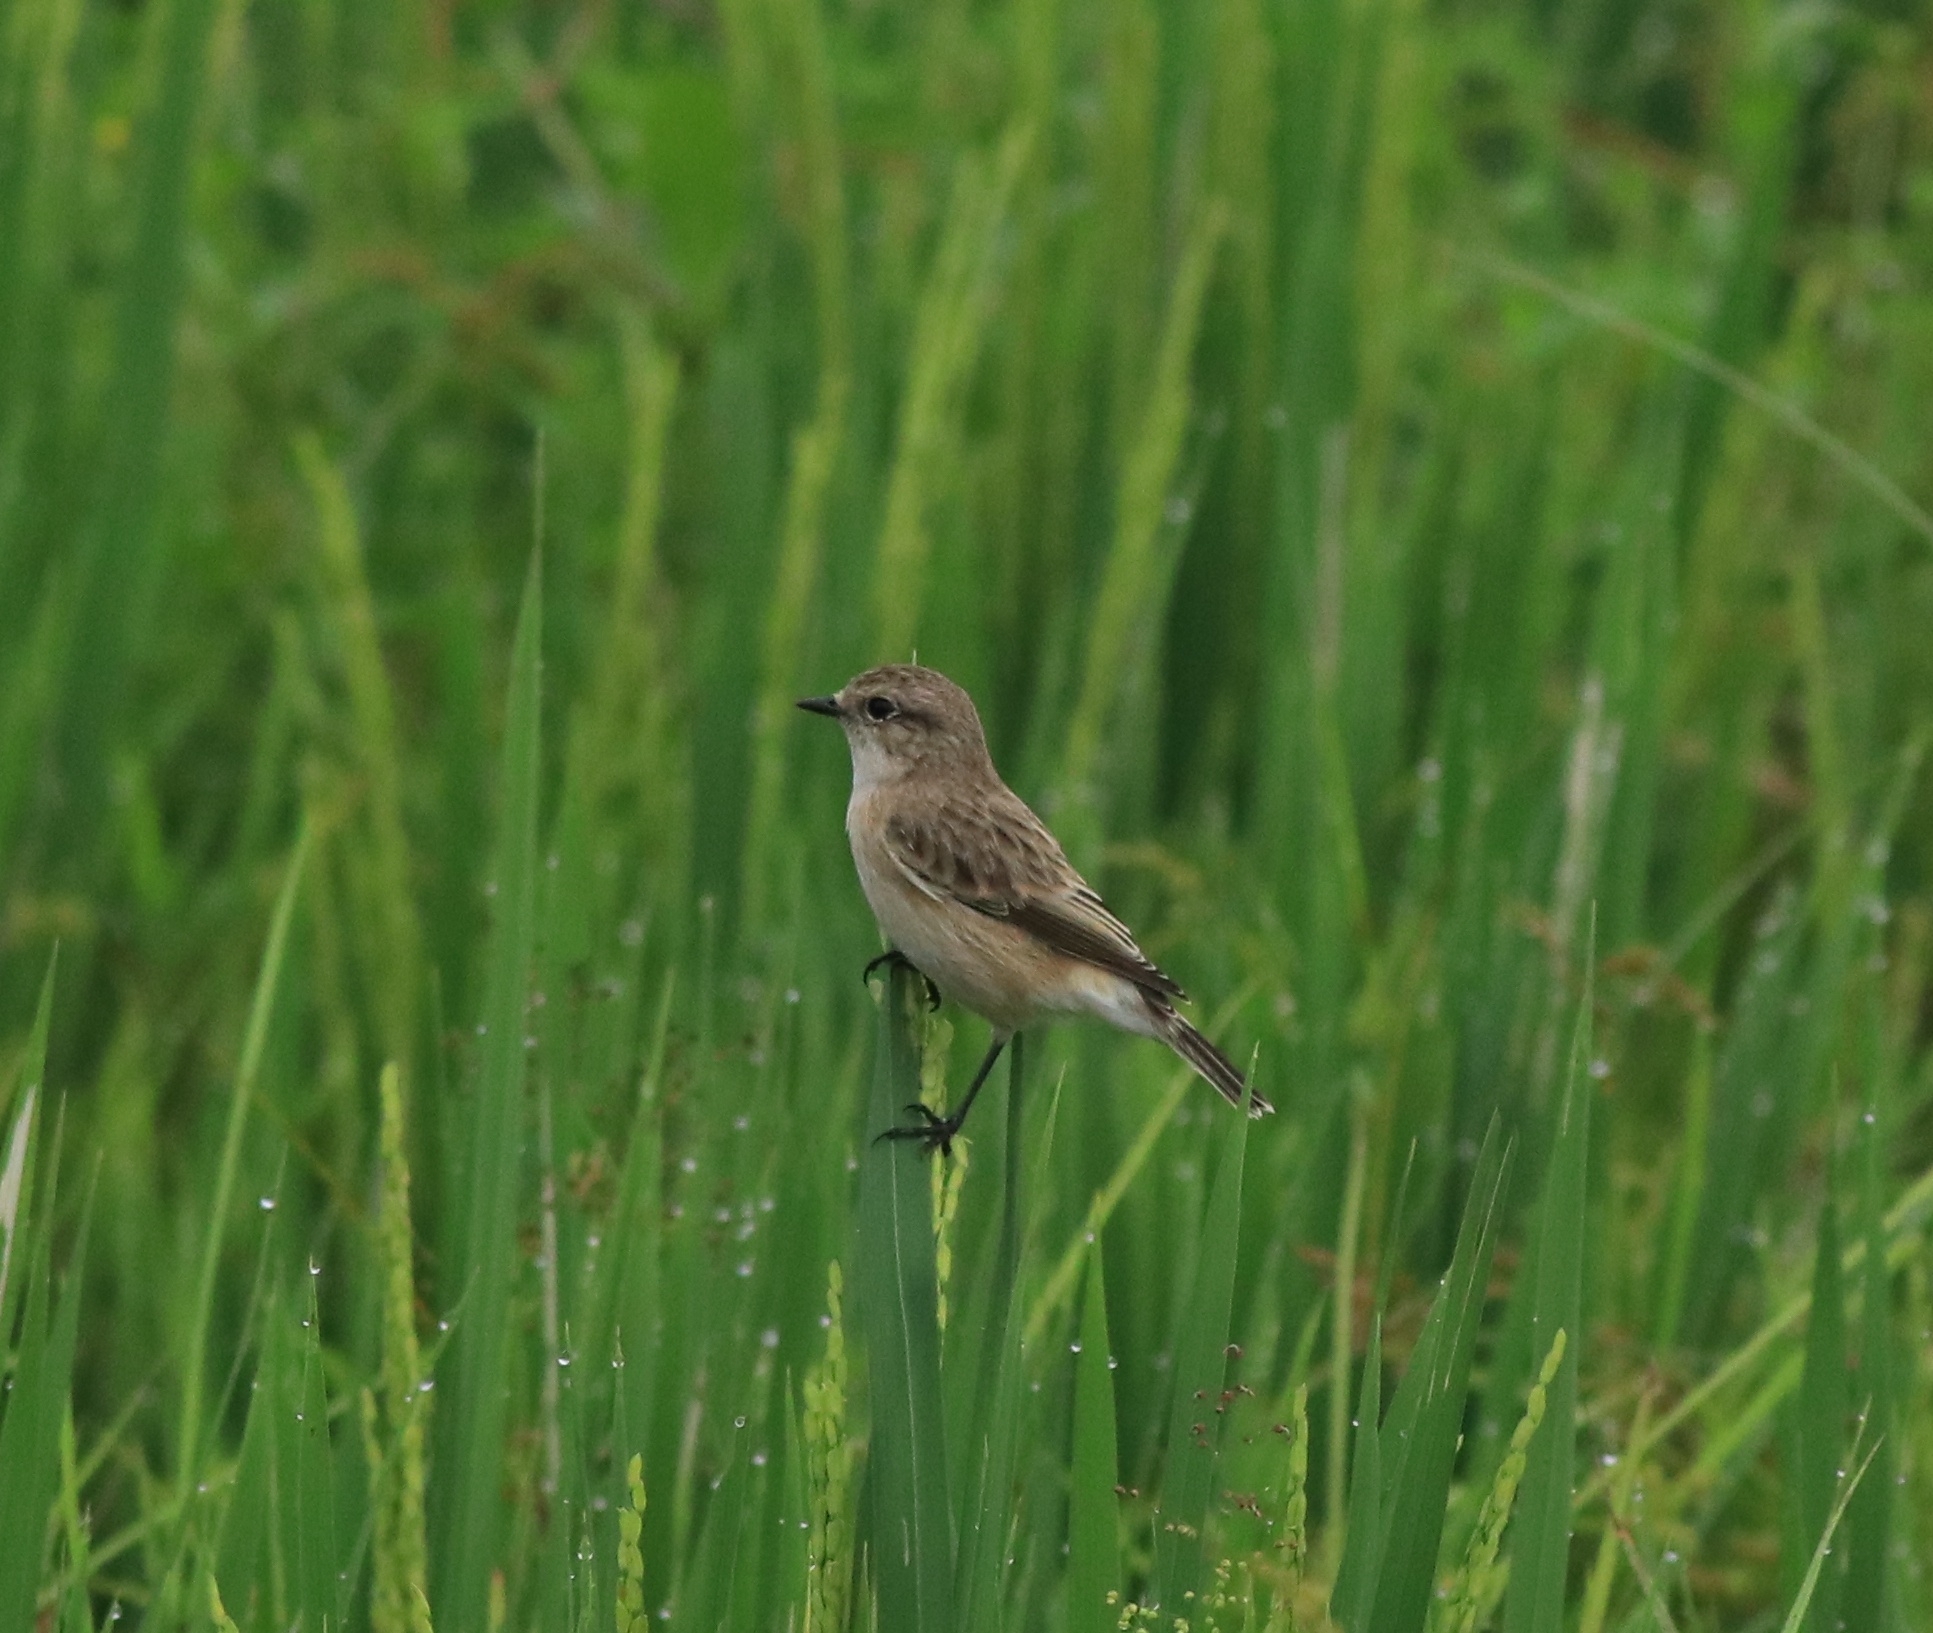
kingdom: Animalia
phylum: Chordata
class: Aves
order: Passeriformes
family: Muscicapidae
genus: Saxicola
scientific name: Saxicola maurus
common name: Siberian stonechat
